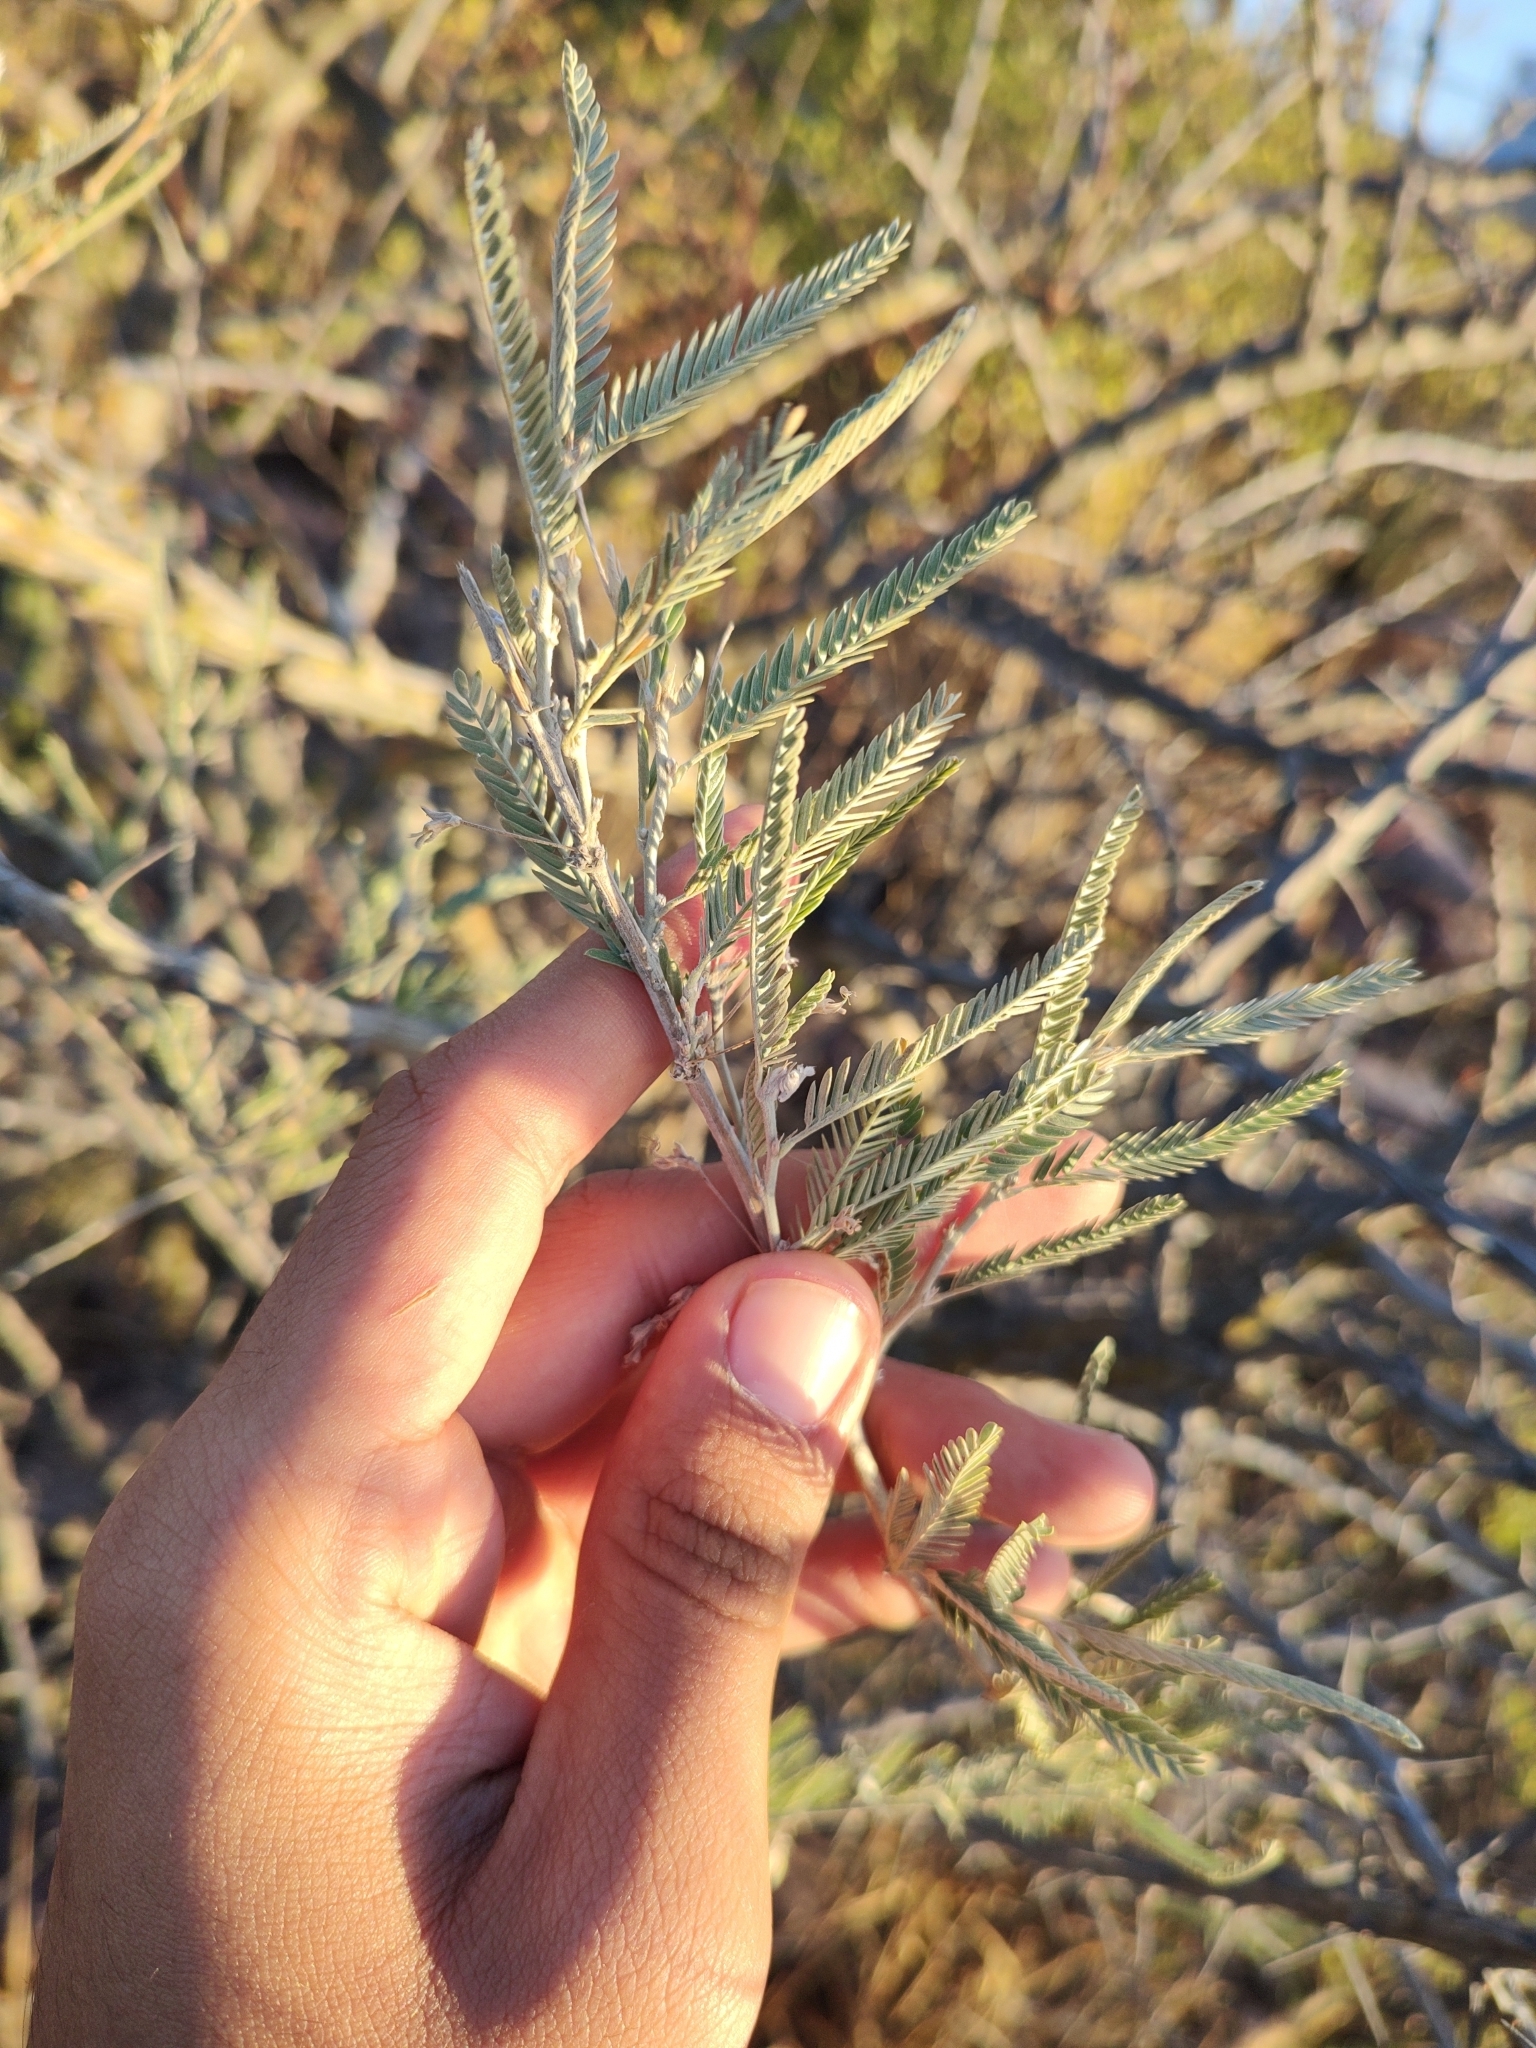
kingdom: Plantae
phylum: Tracheophyta
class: Magnoliopsida
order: Fabales
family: Fabaceae
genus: Ctenodon
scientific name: Ctenodon niveus
